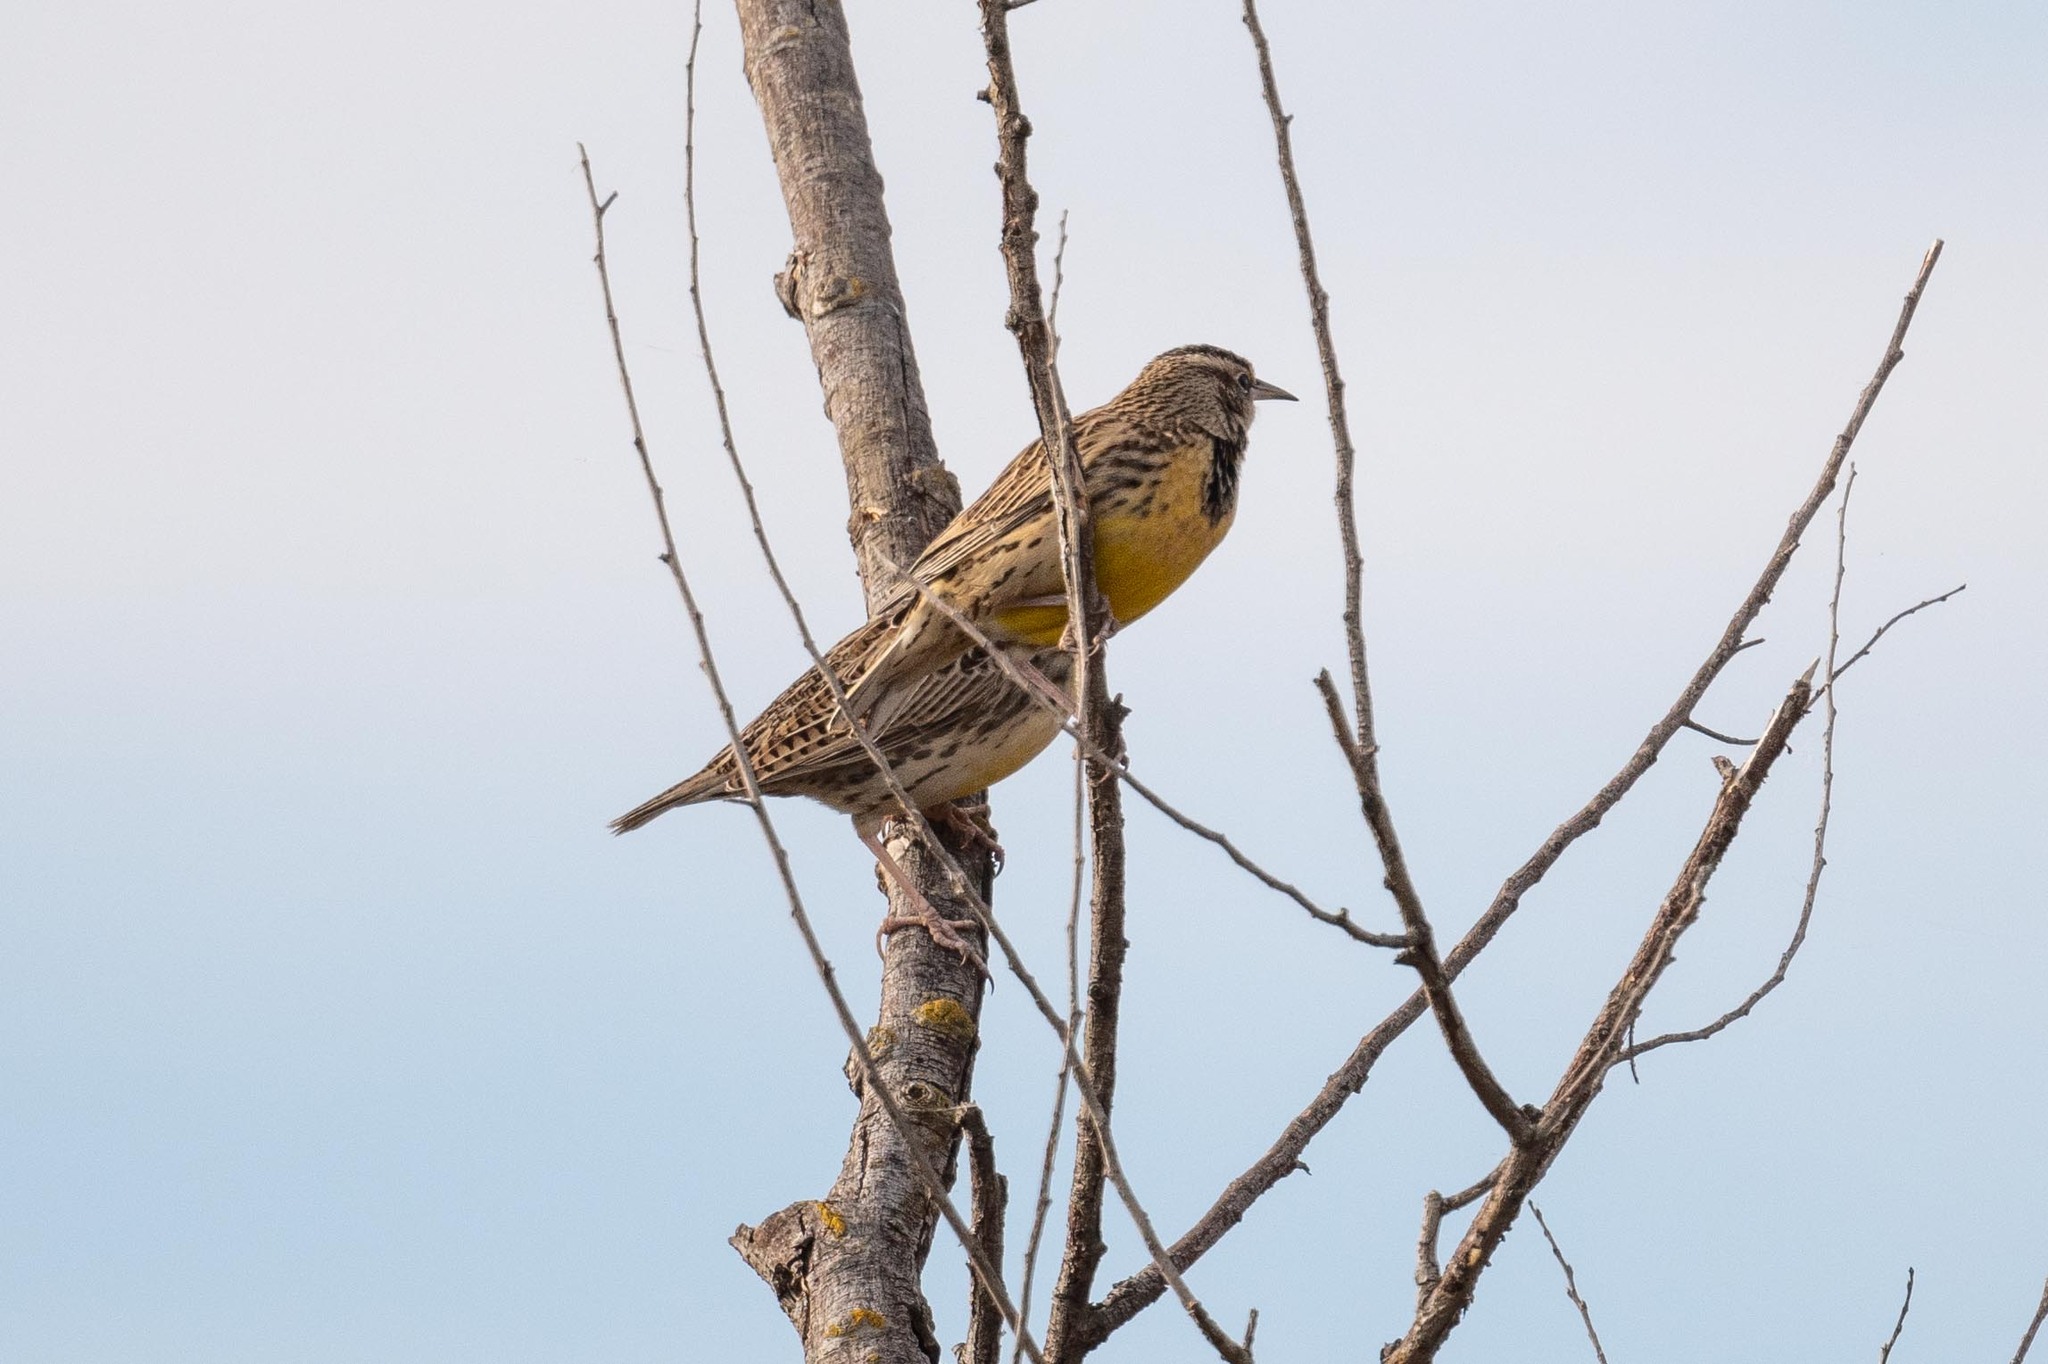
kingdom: Animalia
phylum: Chordata
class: Aves
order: Passeriformes
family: Icteridae
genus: Sturnella
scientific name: Sturnella neglecta
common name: Western meadowlark
